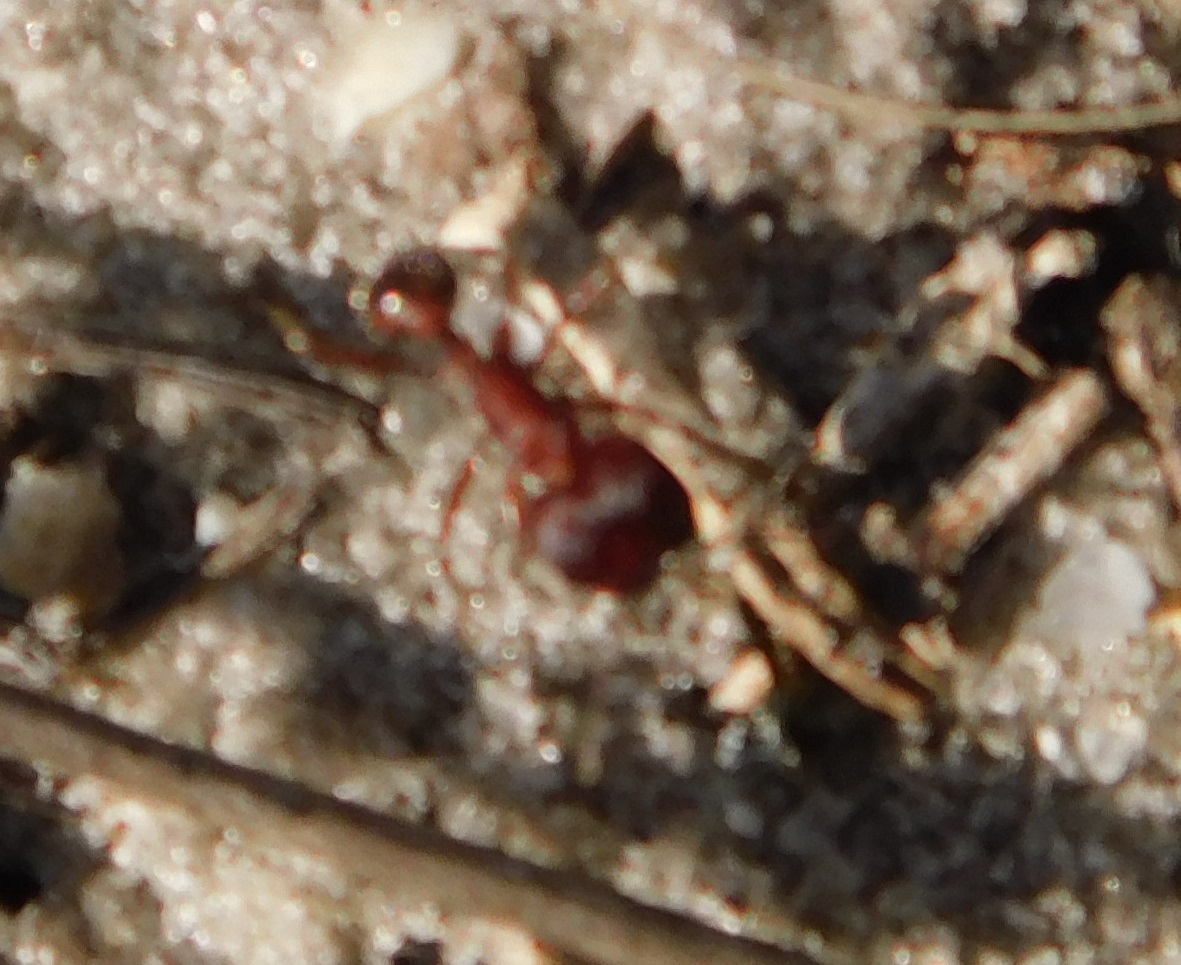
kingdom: Animalia
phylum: Arthropoda
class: Insecta
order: Hymenoptera
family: Formicidae
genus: Pogonomyrmex
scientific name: Pogonomyrmex badius
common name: Florida harvester ant
